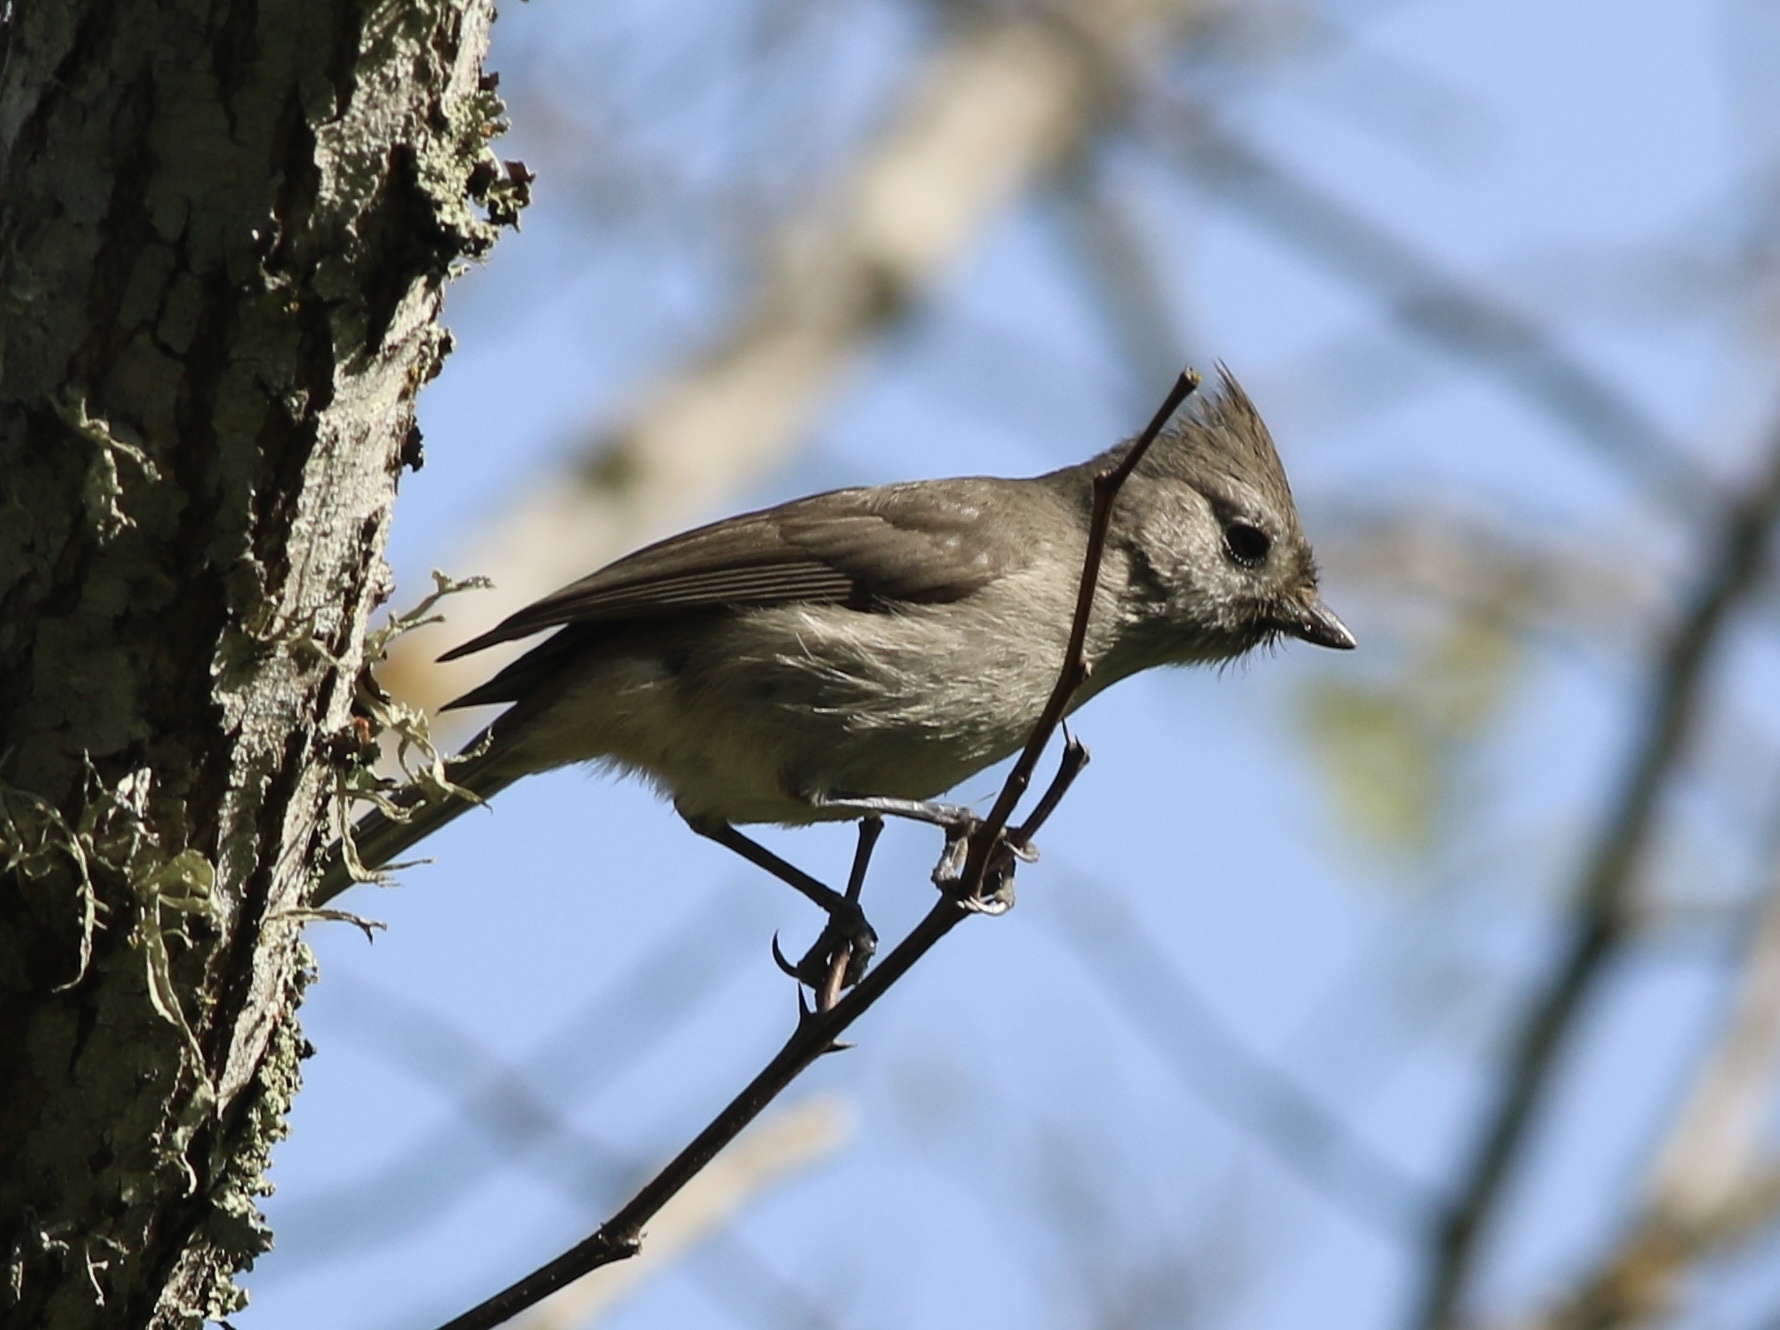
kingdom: Animalia
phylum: Chordata
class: Aves
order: Passeriformes
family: Paridae
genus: Baeolophus
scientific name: Baeolophus inornatus
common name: Oak titmouse
